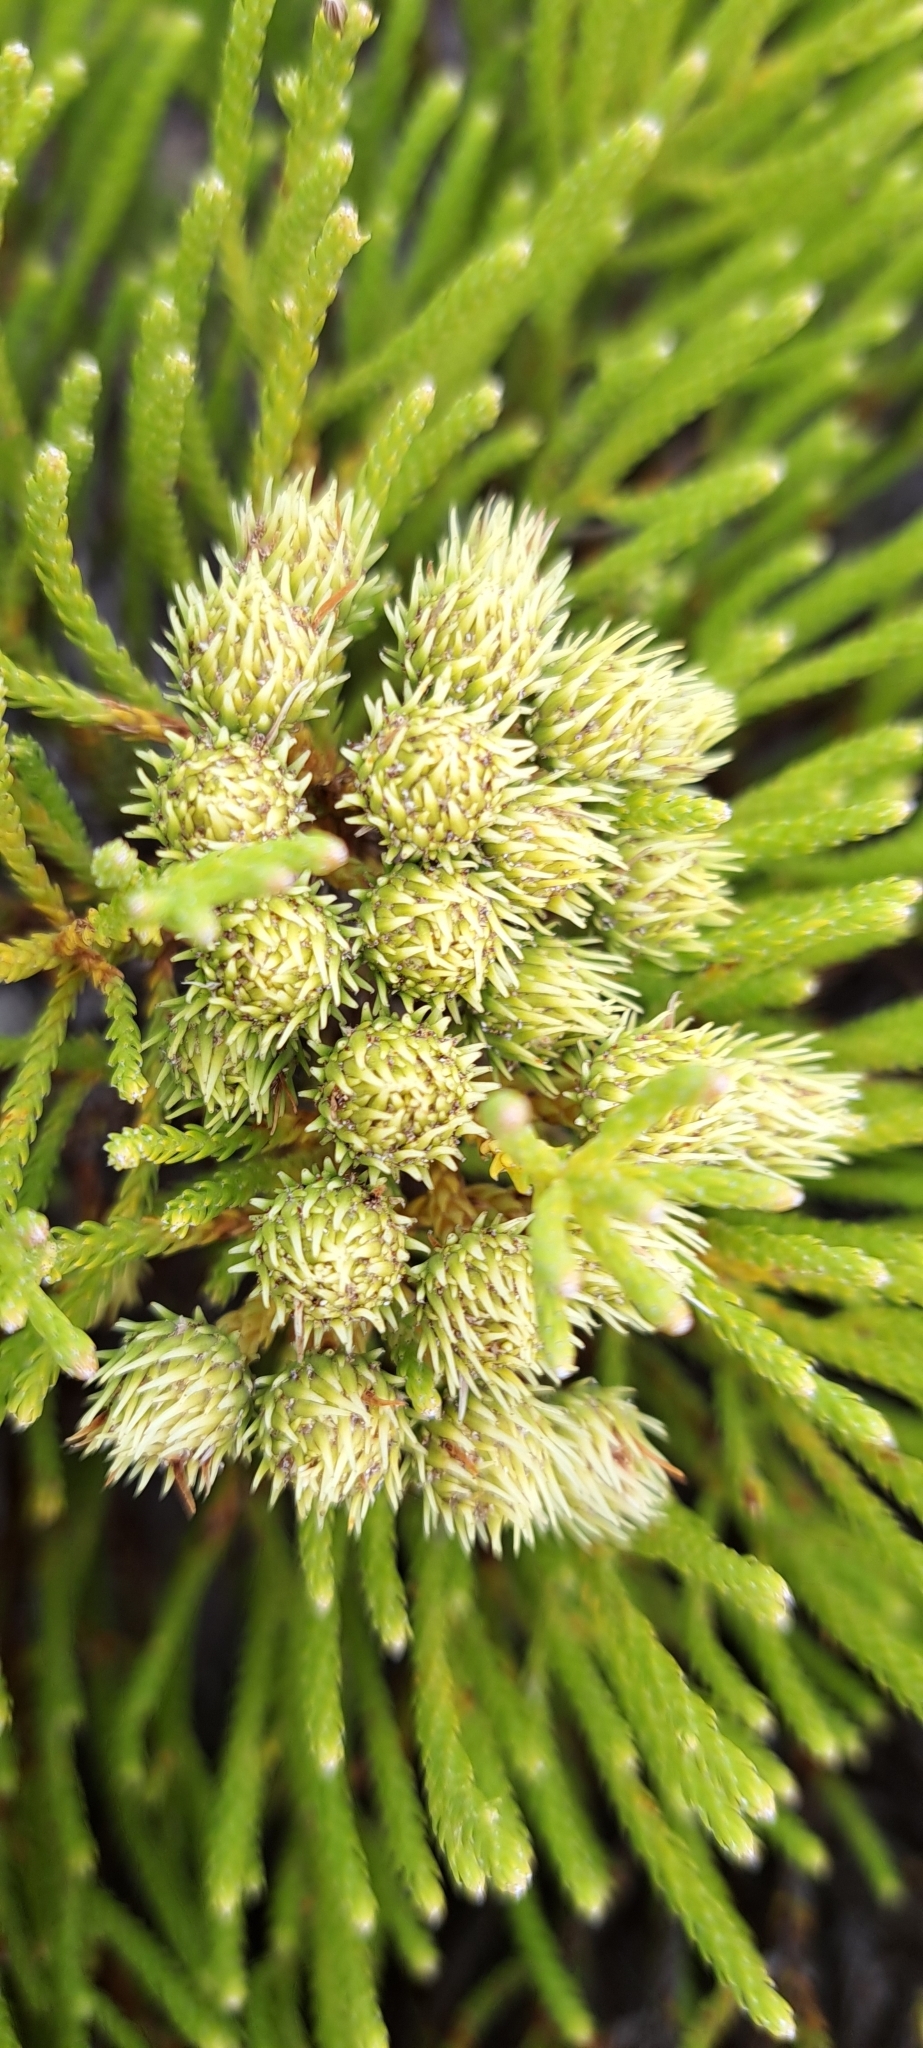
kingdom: Plantae
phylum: Tracheophyta
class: Magnoliopsida
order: Bruniales
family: Bruniaceae
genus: Brunia
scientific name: Brunia paleacea
